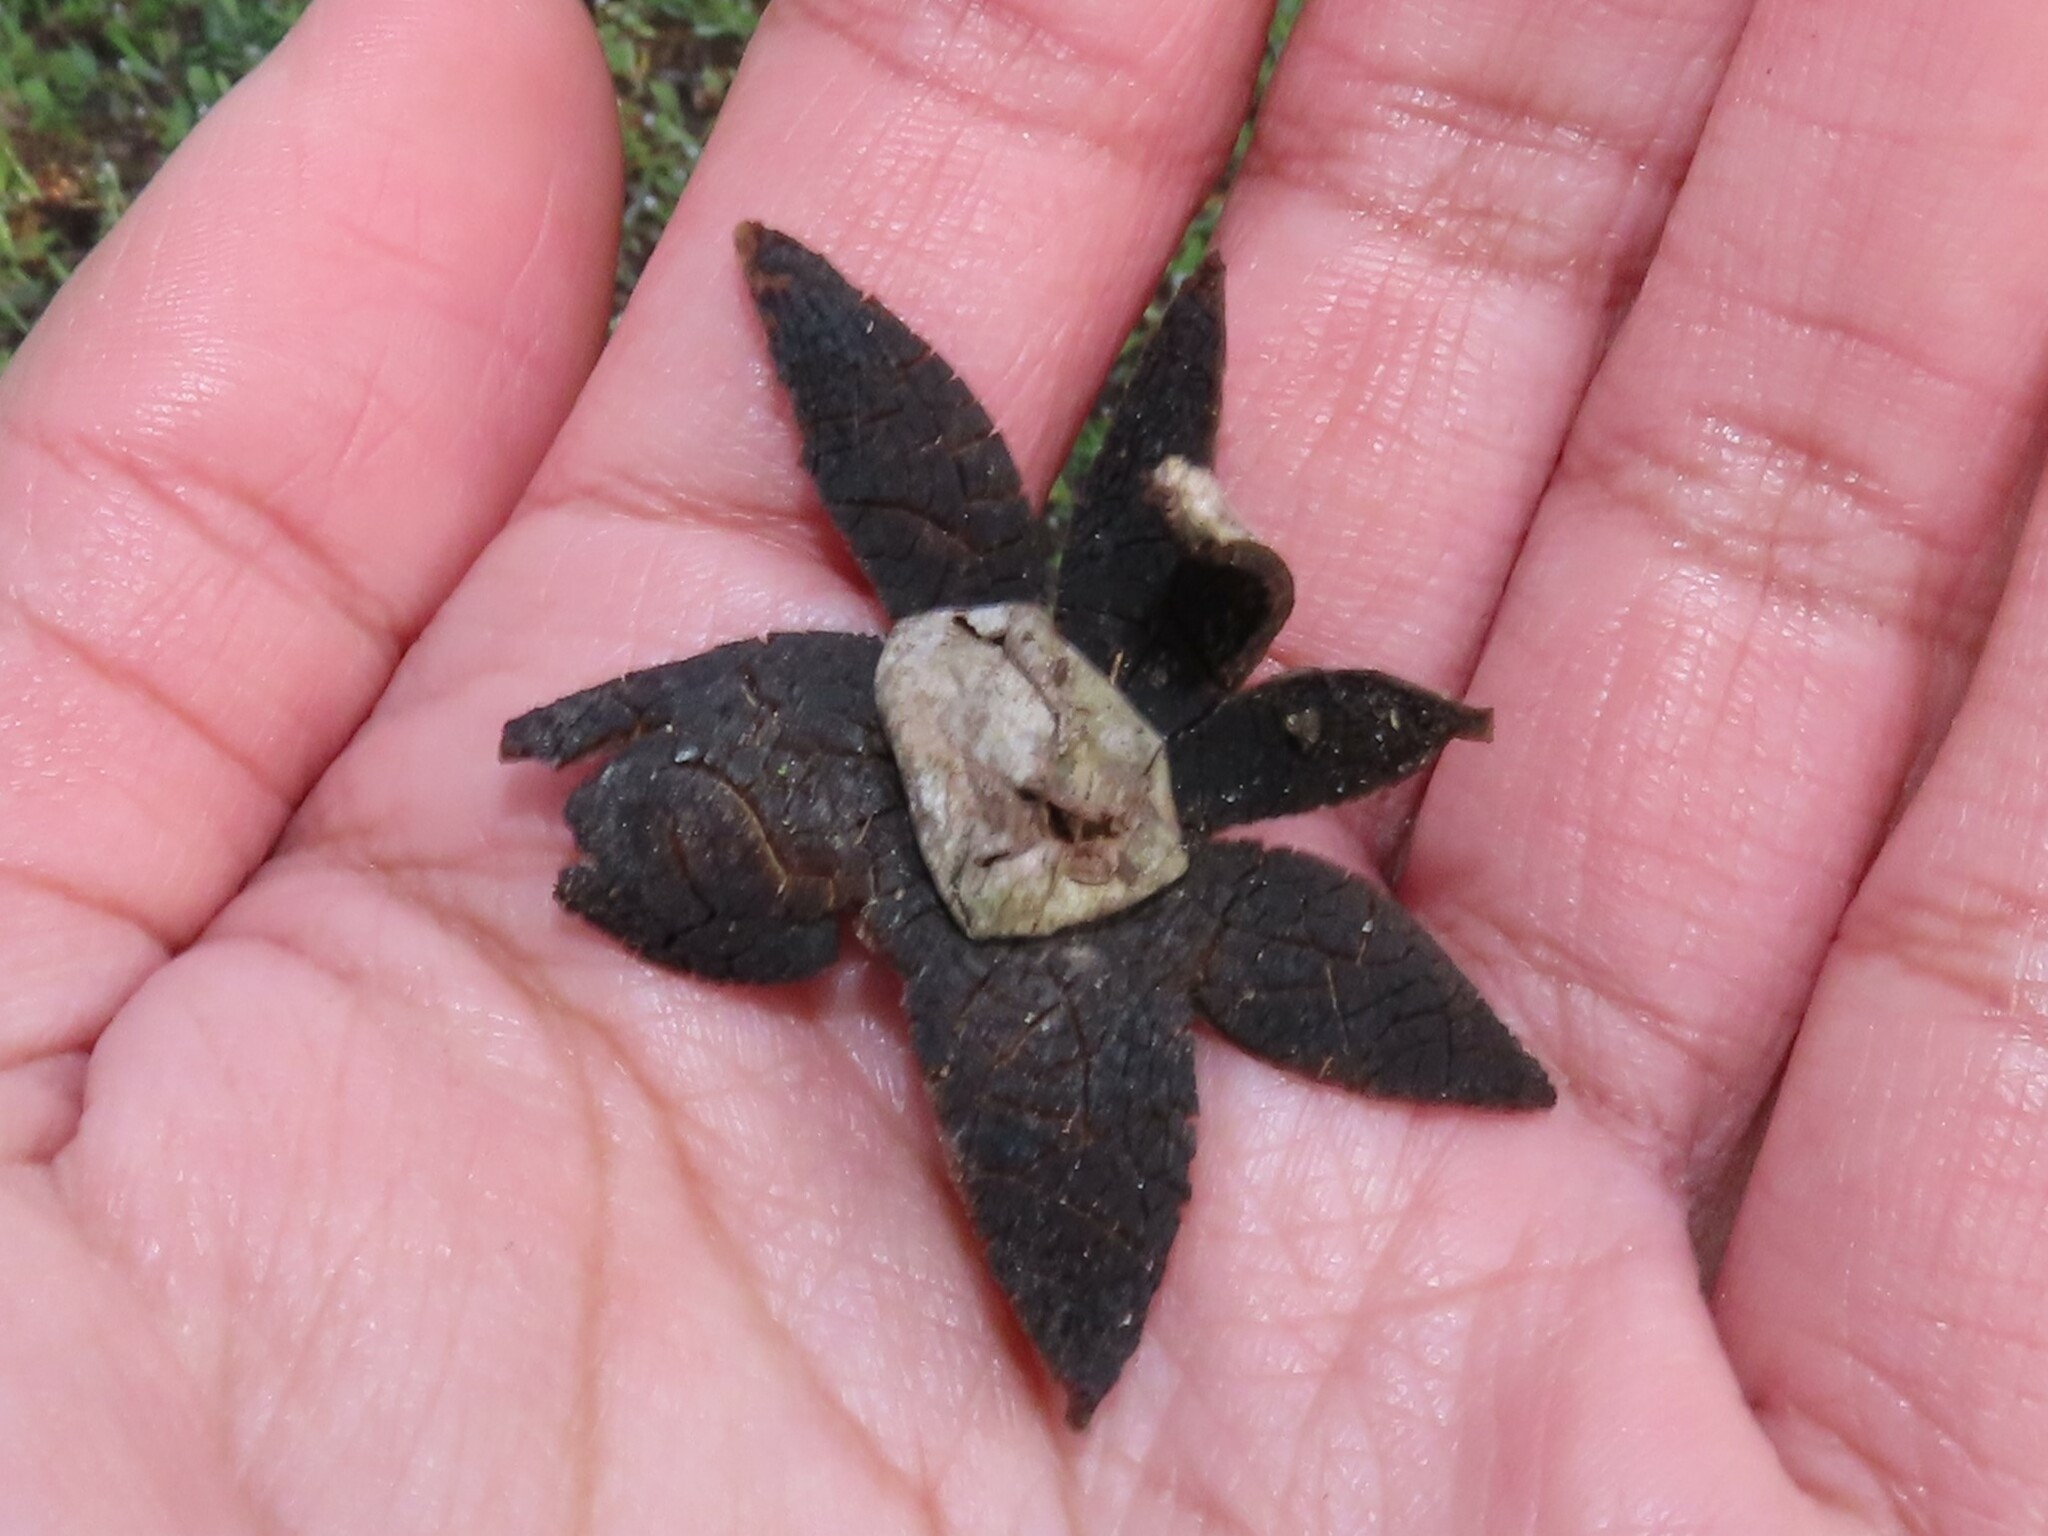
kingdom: Fungi
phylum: Basidiomycota
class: Agaricomycetes
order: Boletales
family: Diplocystidiaceae
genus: Astraeus
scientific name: Astraeus hygrometricus
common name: Barometer earthstar
